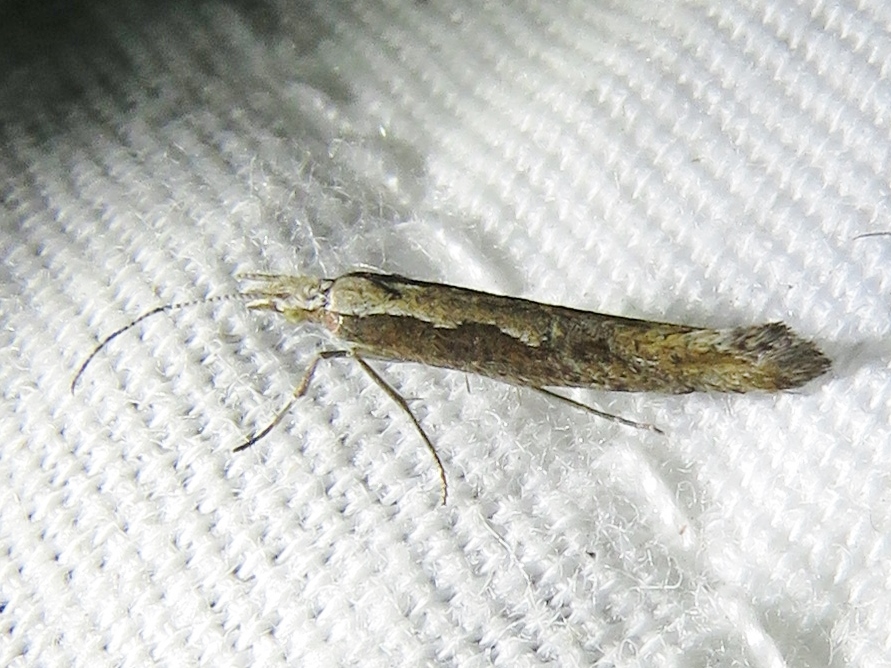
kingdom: Animalia
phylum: Arthropoda
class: Insecta
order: Lepidoptera
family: Plutellidae
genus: Plutella
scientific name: Plutella xylostella
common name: Diamond-back moth
